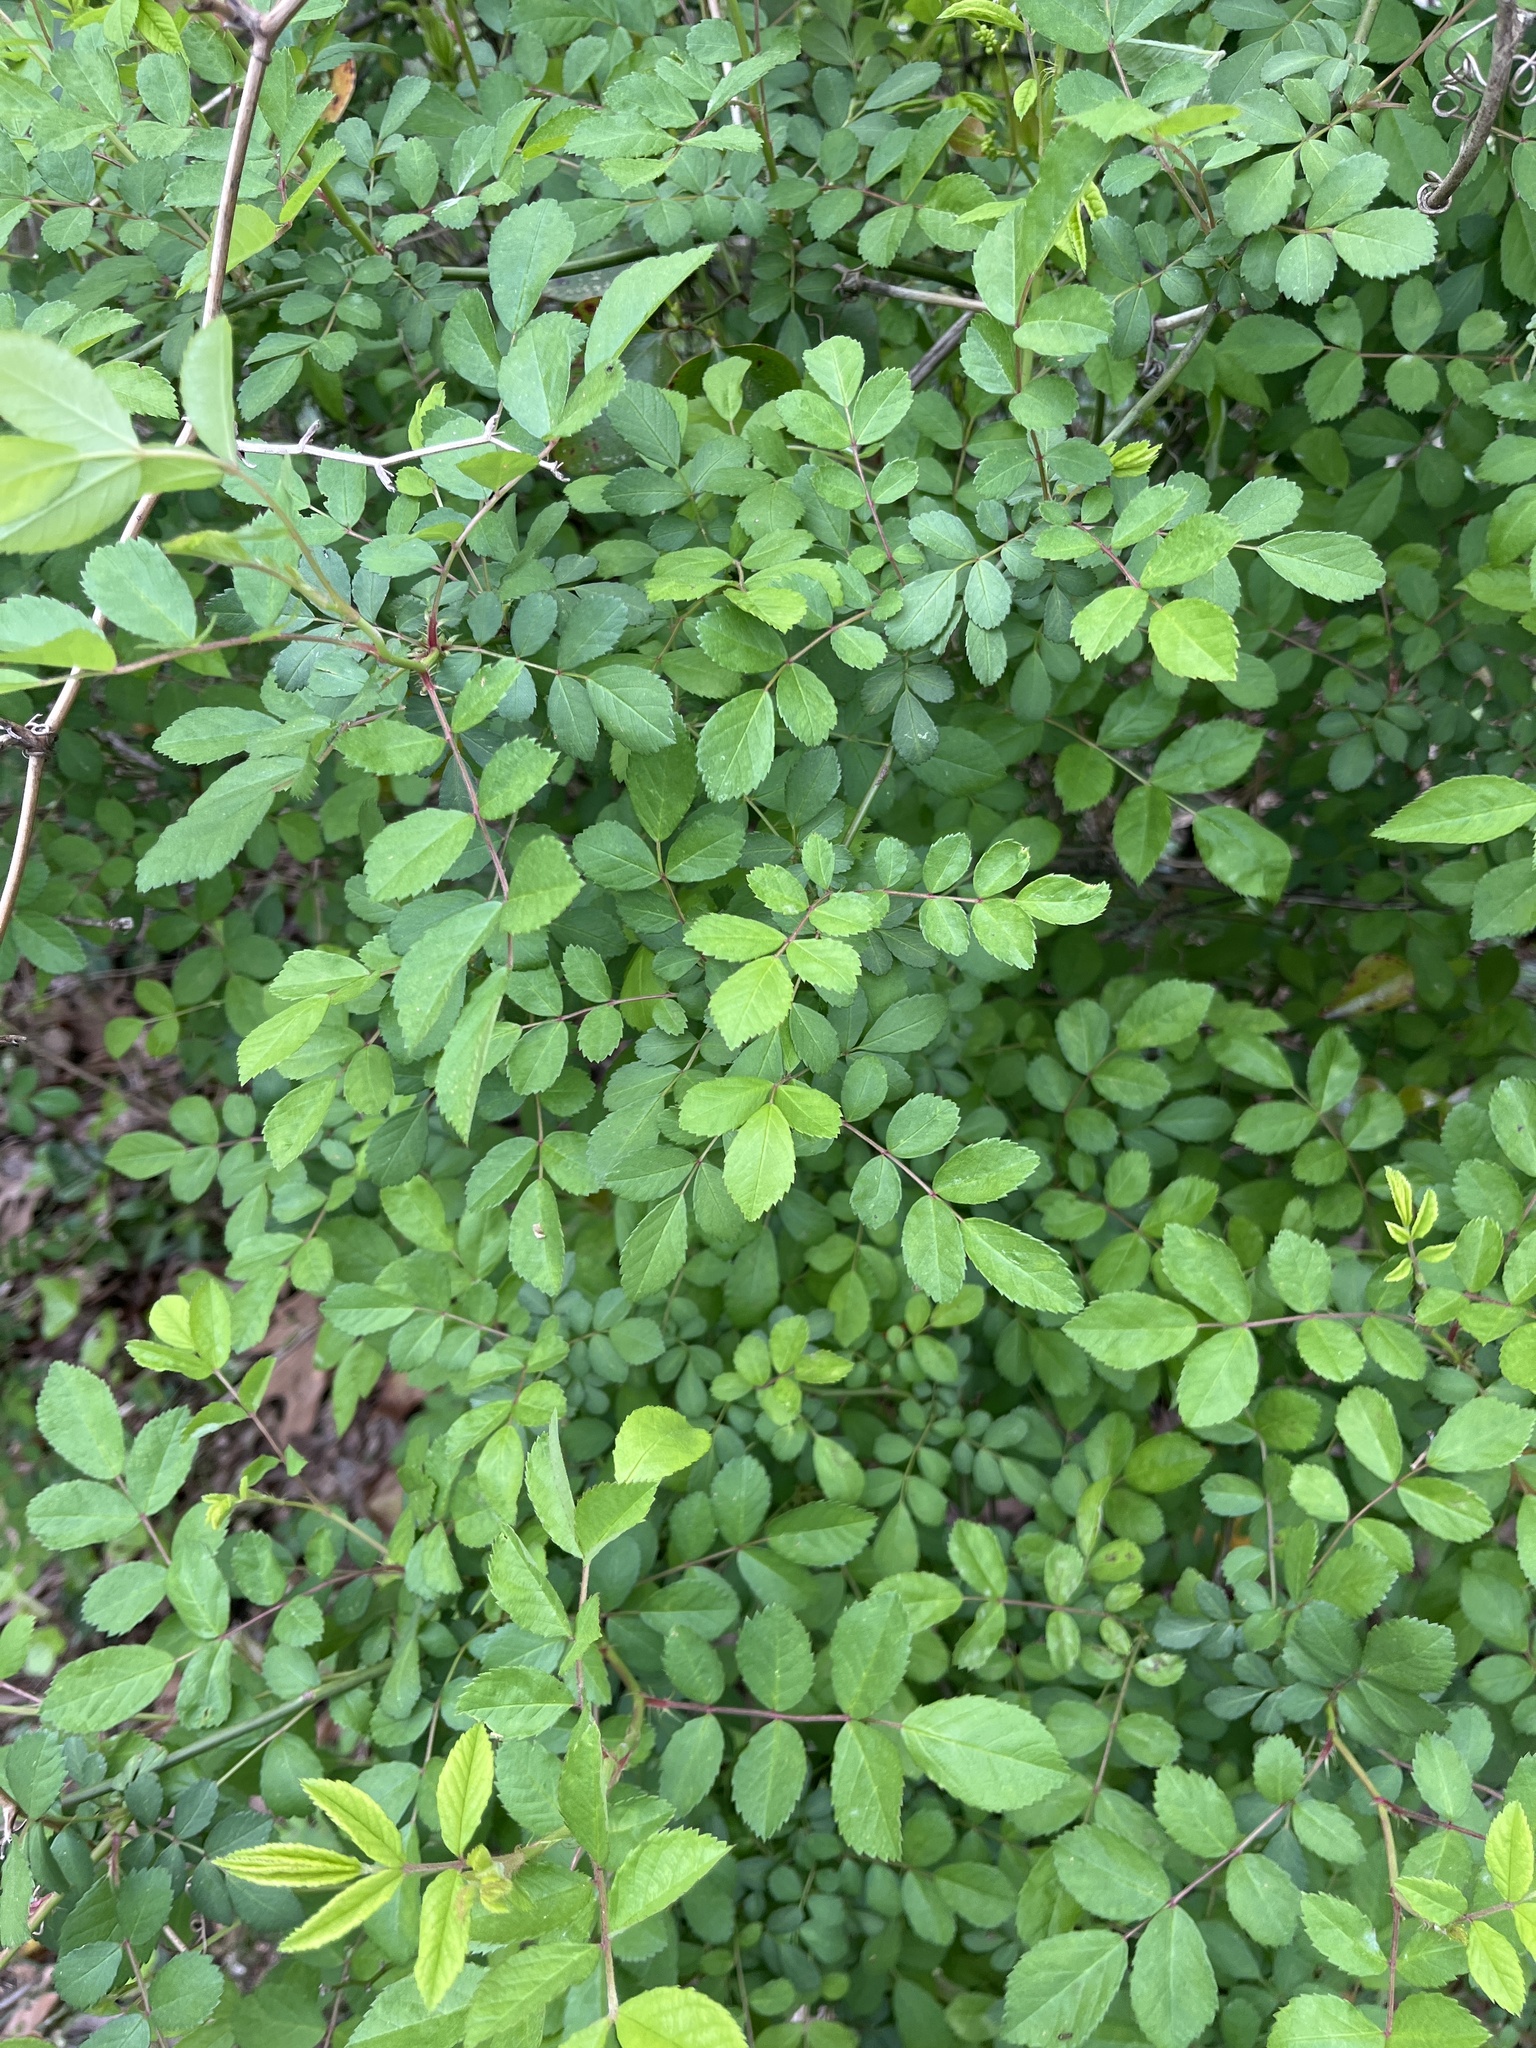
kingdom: Plantae
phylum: Tracheophyta
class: Magnoliopsida
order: Rosales
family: Rosaceae
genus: Rosa
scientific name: Rosa multiflora
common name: Multiflora rose
